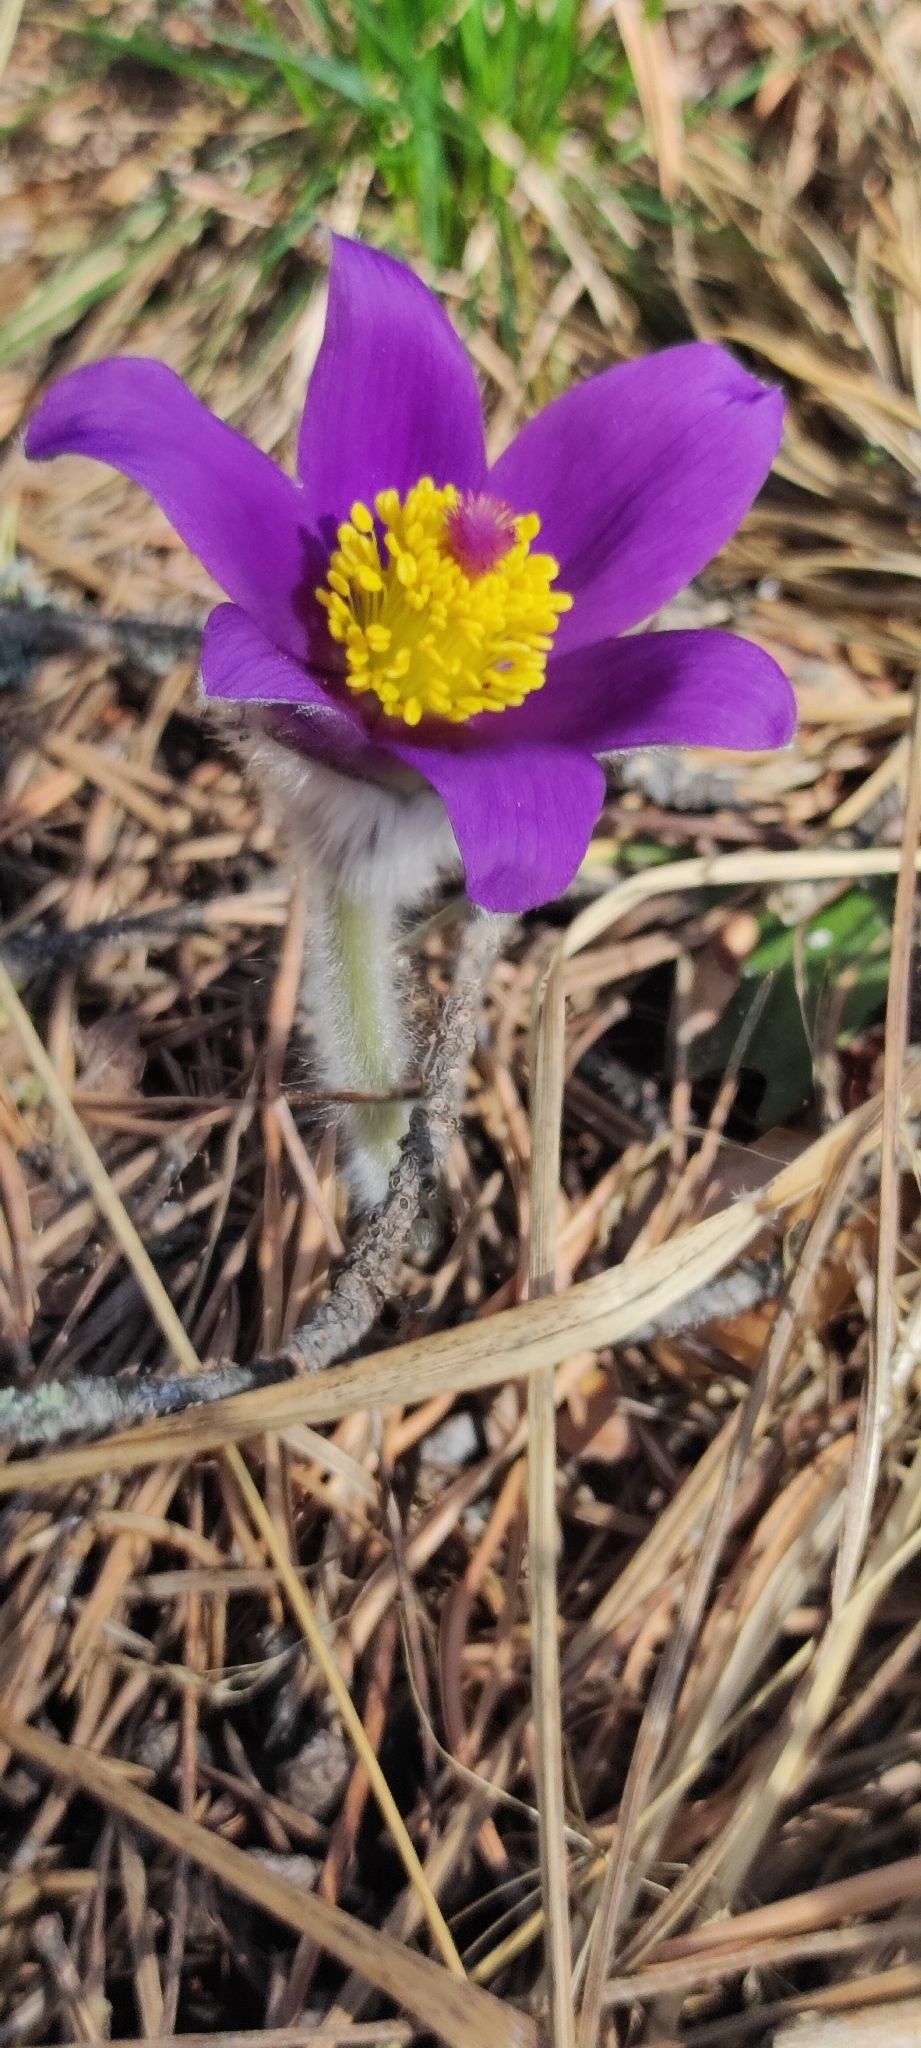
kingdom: Plantae
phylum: Tracheophyta
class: Magnoliopsida
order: Ranunculales
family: Ranunculaceae
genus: Pulsatilla
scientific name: Pulsatilla patens
